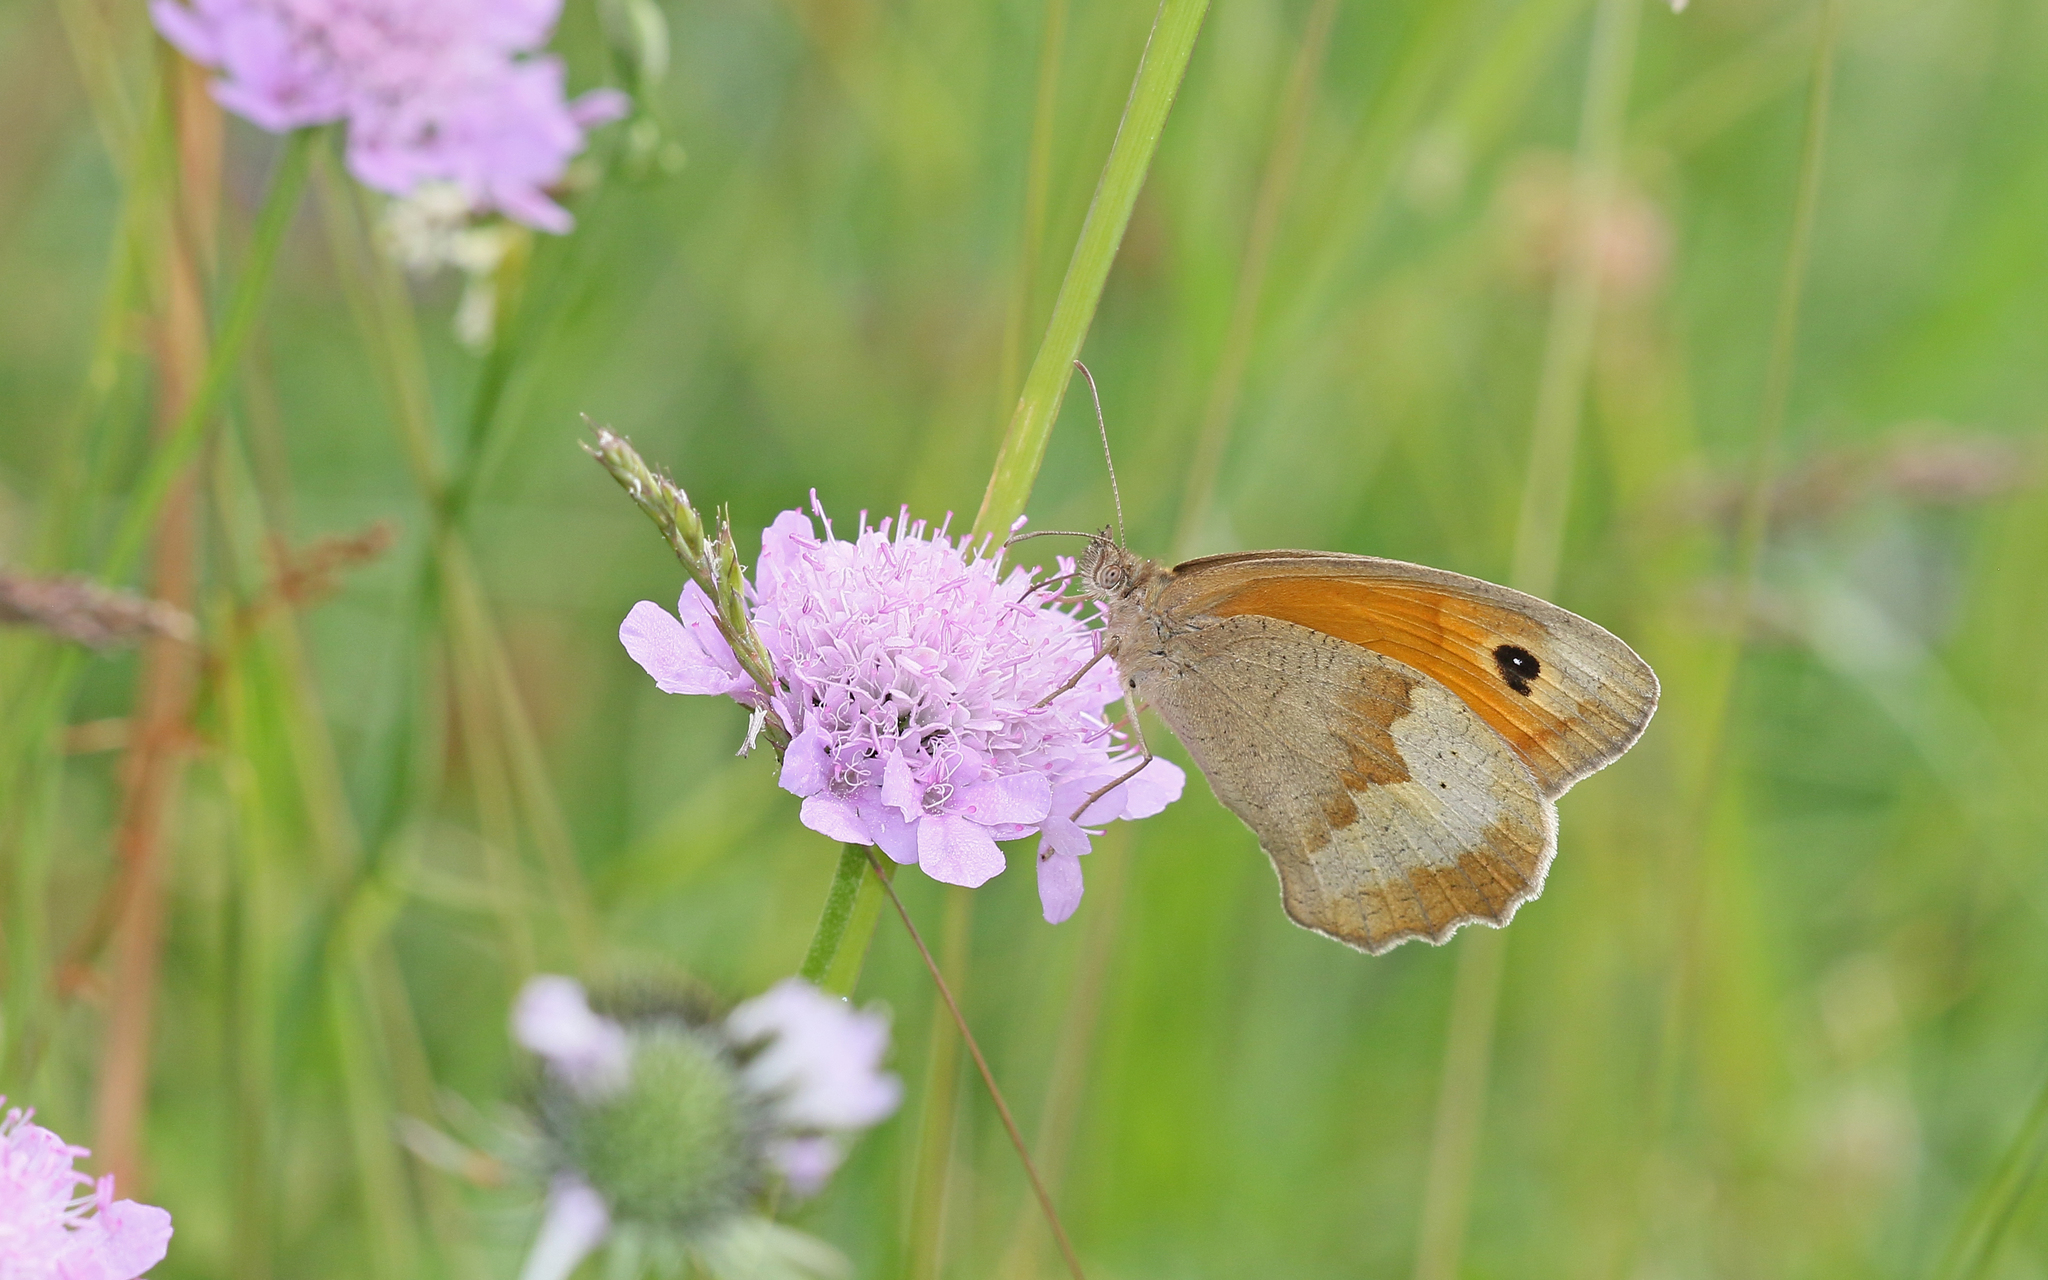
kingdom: Animalia
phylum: Arthropoda
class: Insecta
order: Lepidoptera
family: Nymphalidae
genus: Maniola
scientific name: Maniola jurtina
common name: Meadow brown
